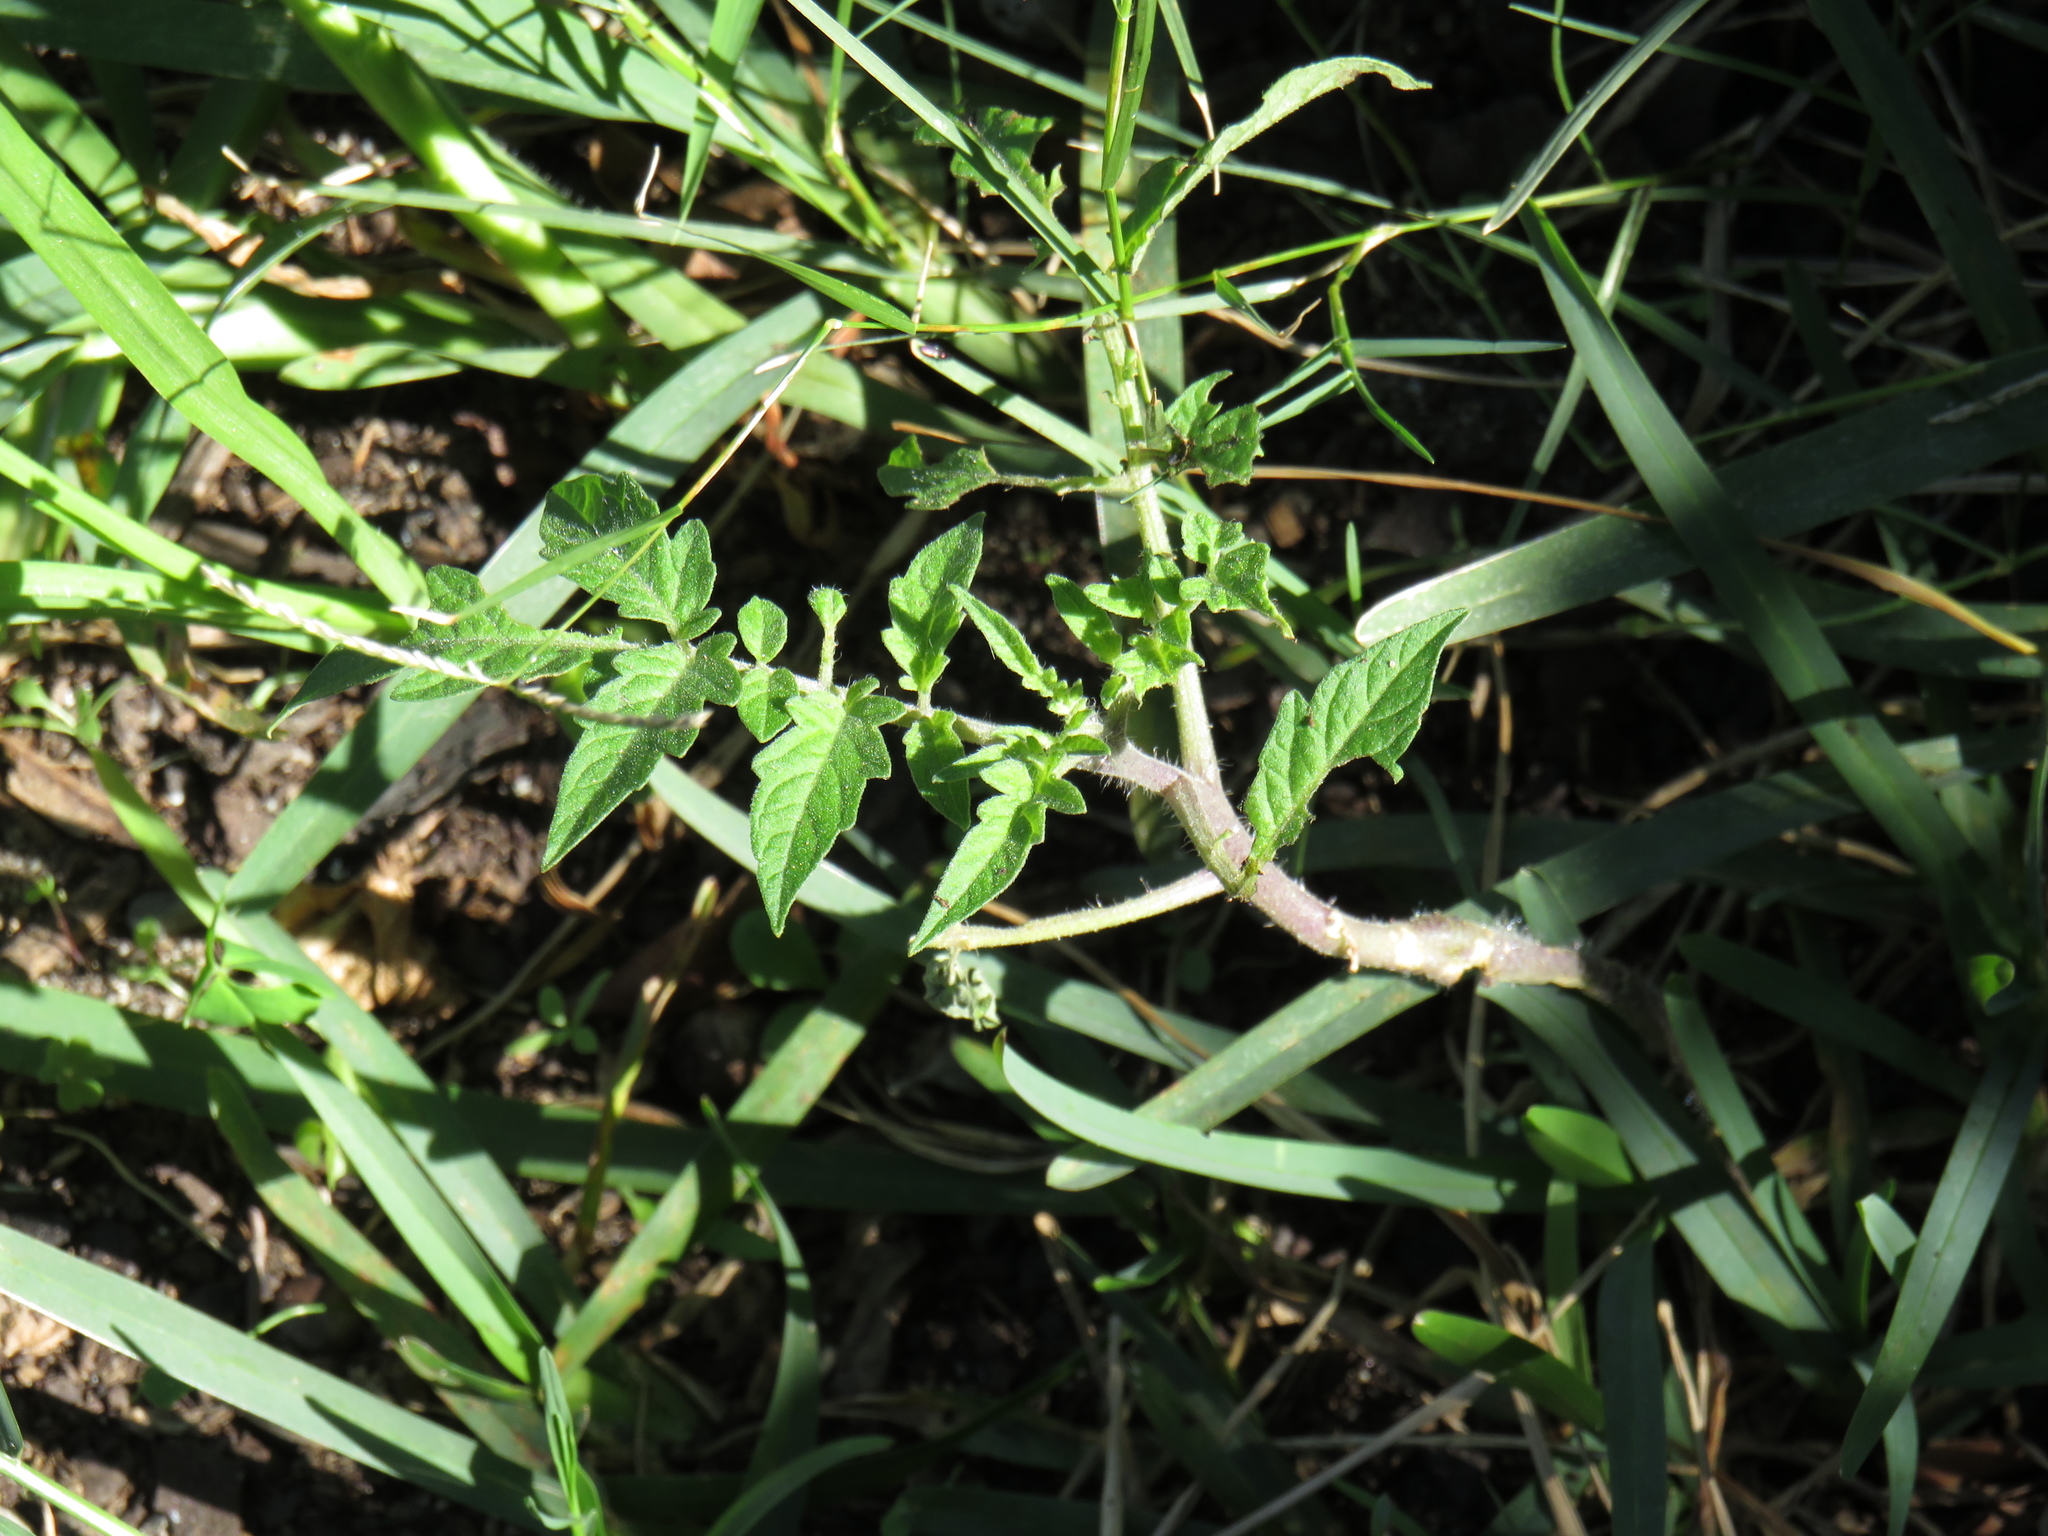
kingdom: Plantae
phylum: Tracheophyta
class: Magnoliopsida
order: Solanales
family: Solanaceae
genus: Solanum
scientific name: Solanum lycopersicum
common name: Garden tomato
